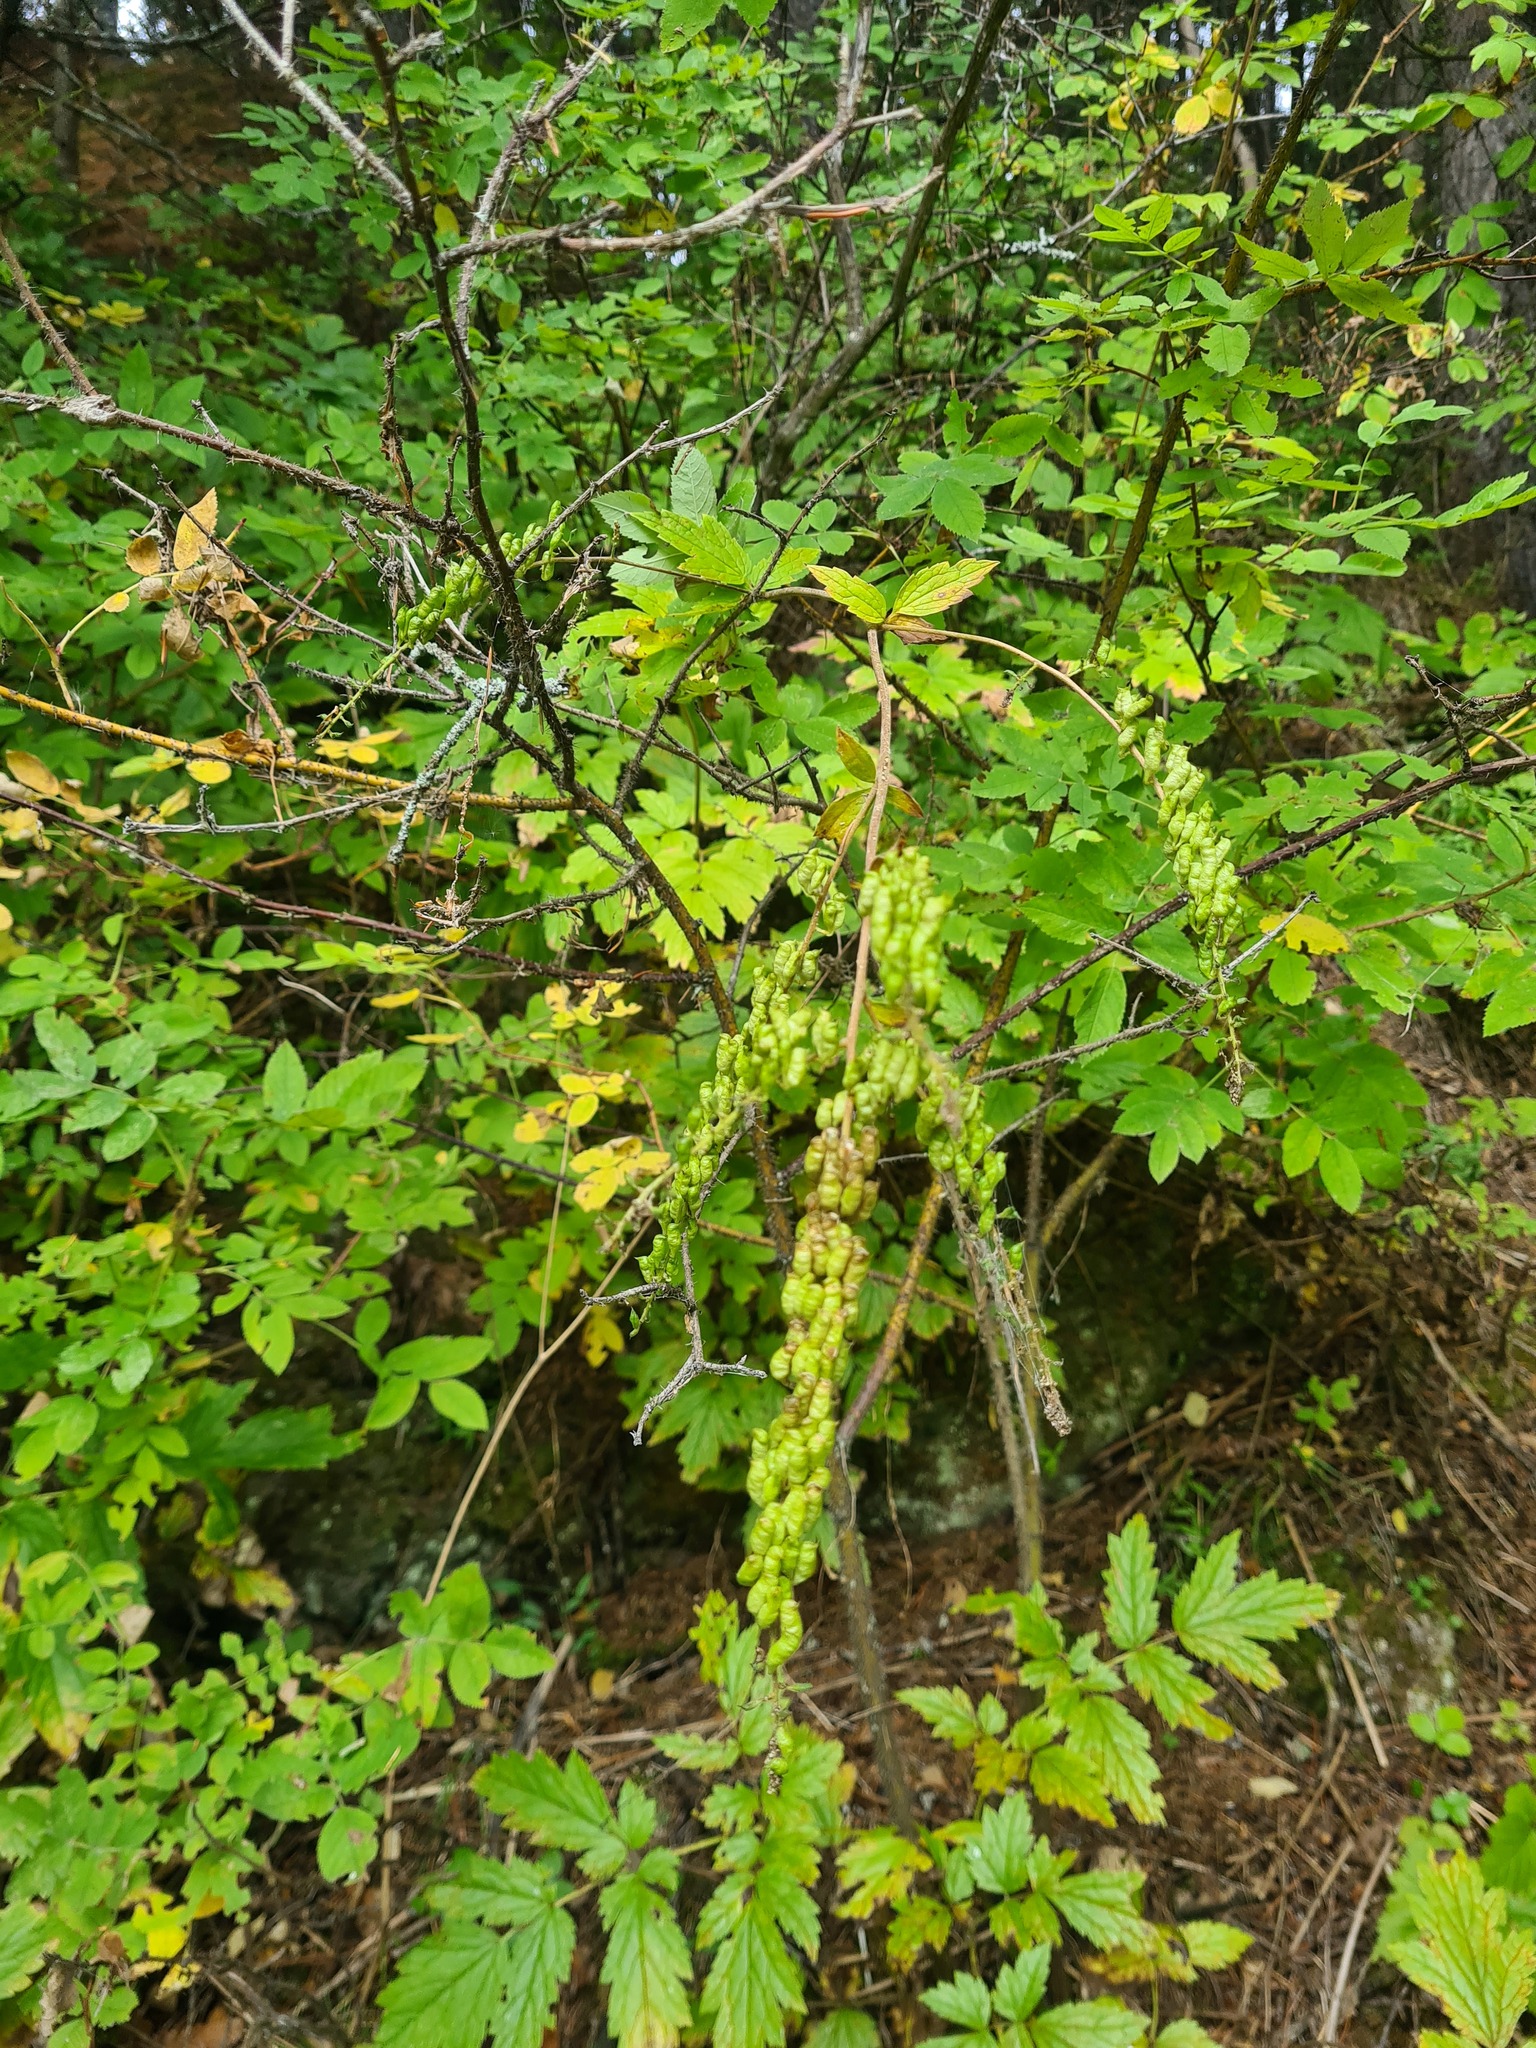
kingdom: Plantae
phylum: Tracheophyta
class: Magnoliopsida
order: Ranunculales
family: Ranunculaceae
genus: Actaea
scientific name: Actaea cimicifuga
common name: Chinese cimicifuga
